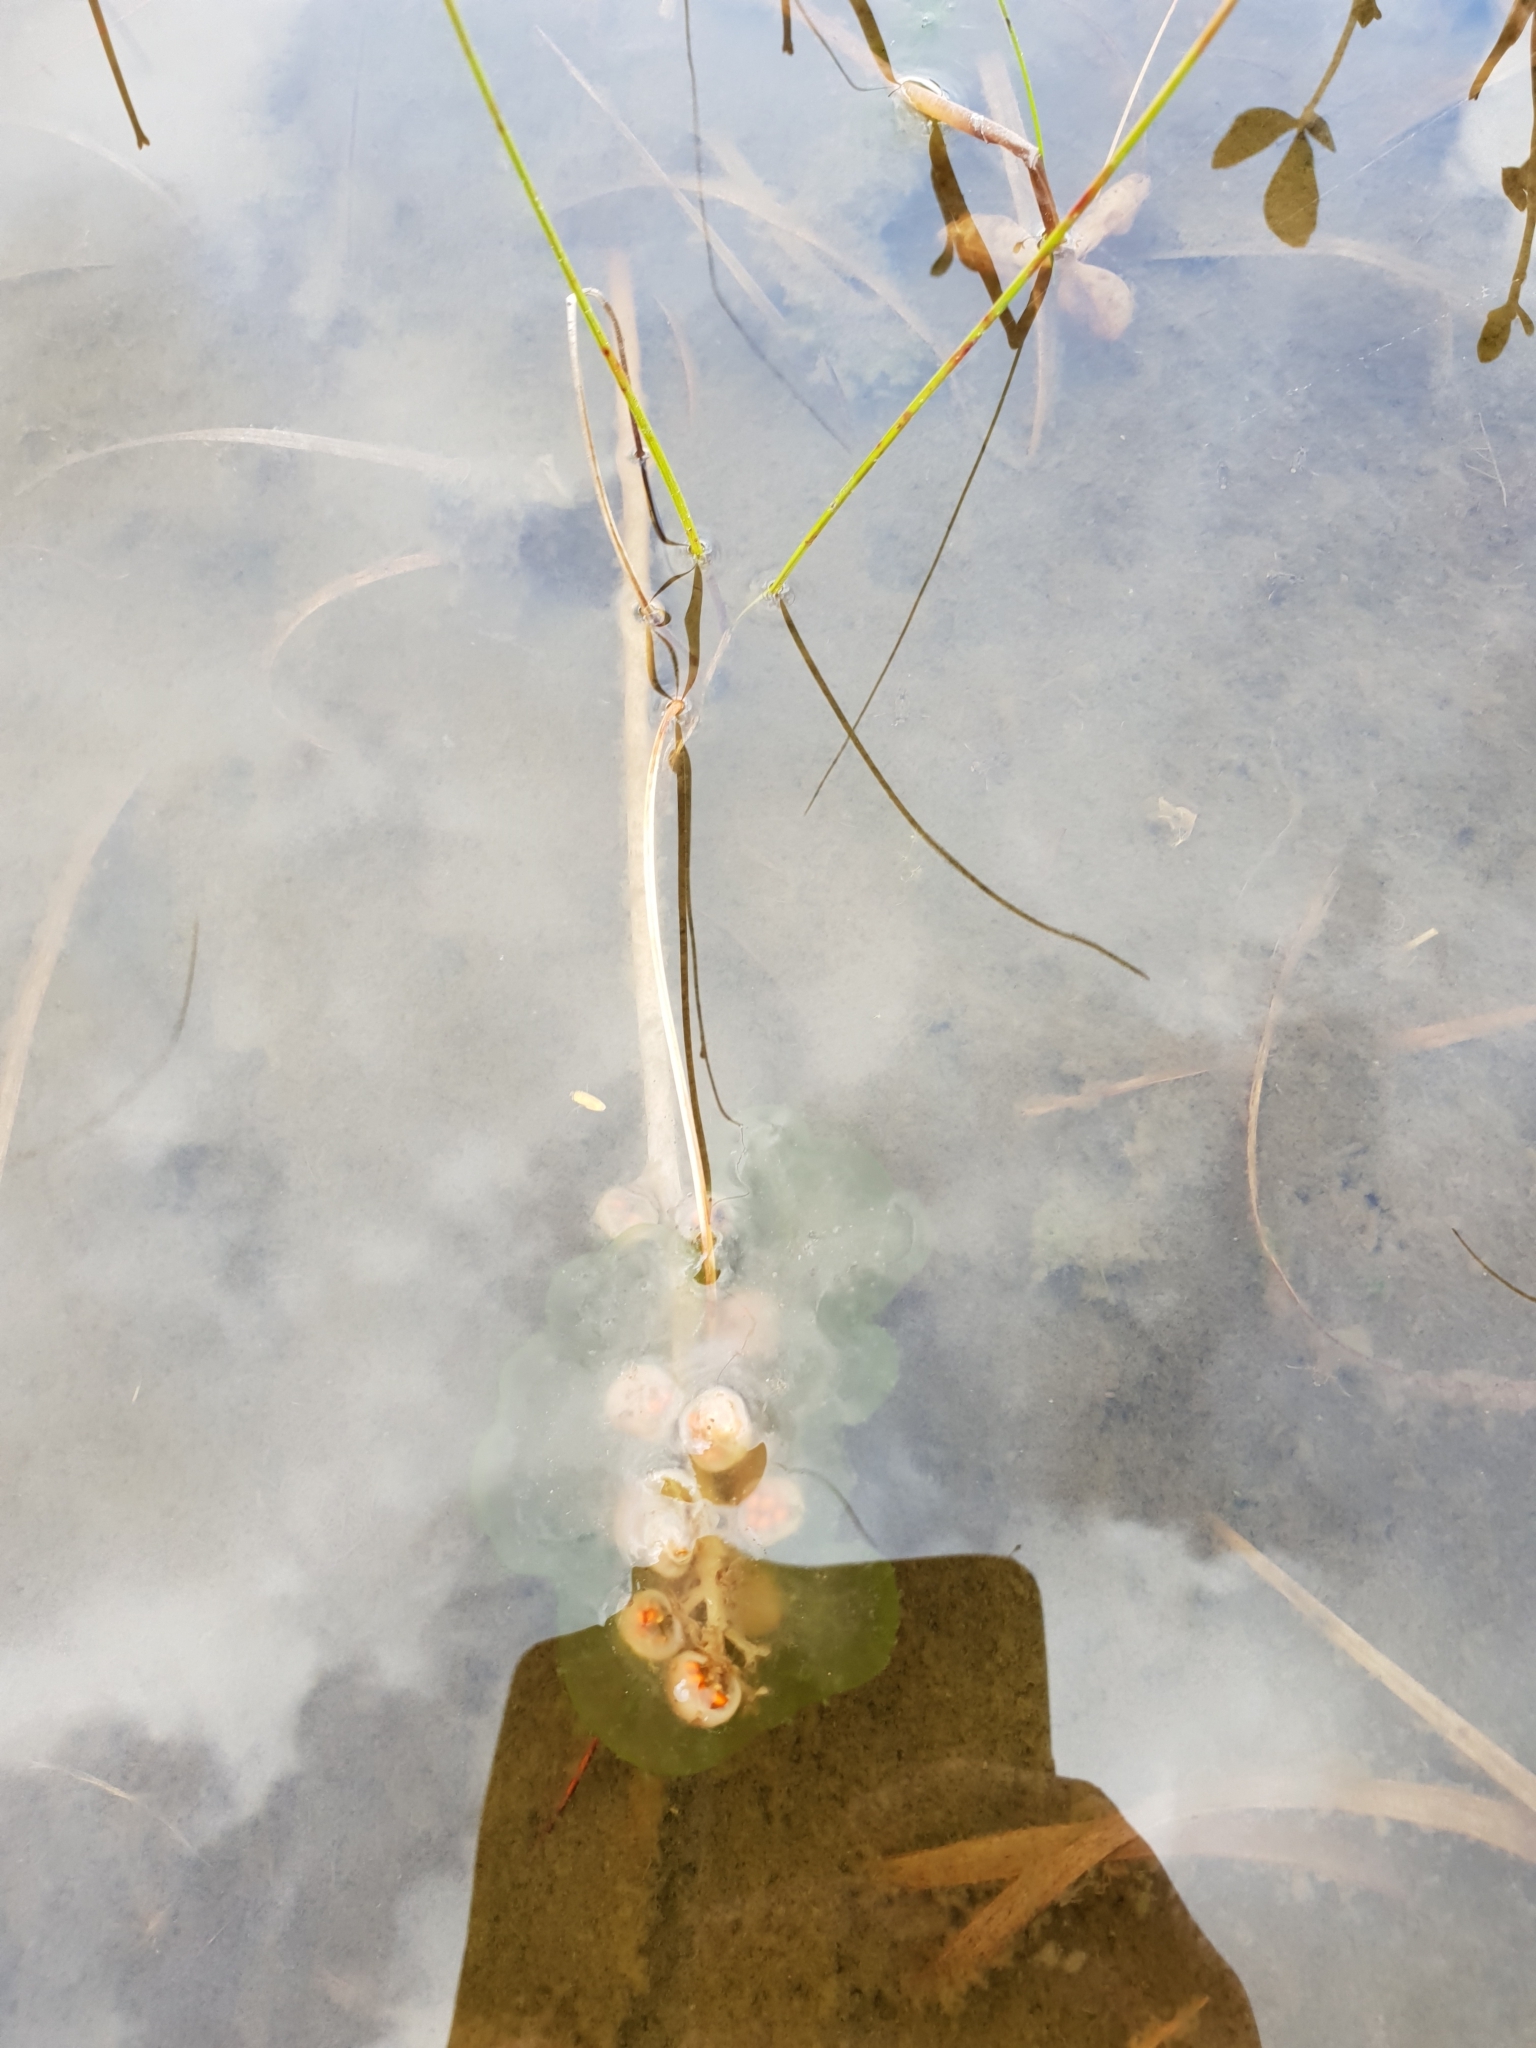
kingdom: Plantae
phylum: Tracheophyta
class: Magnoliopsida
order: Asterales
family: Menyanthaceae
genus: Menyanthes
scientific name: Menyanthes trifoliata
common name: Bogbean
